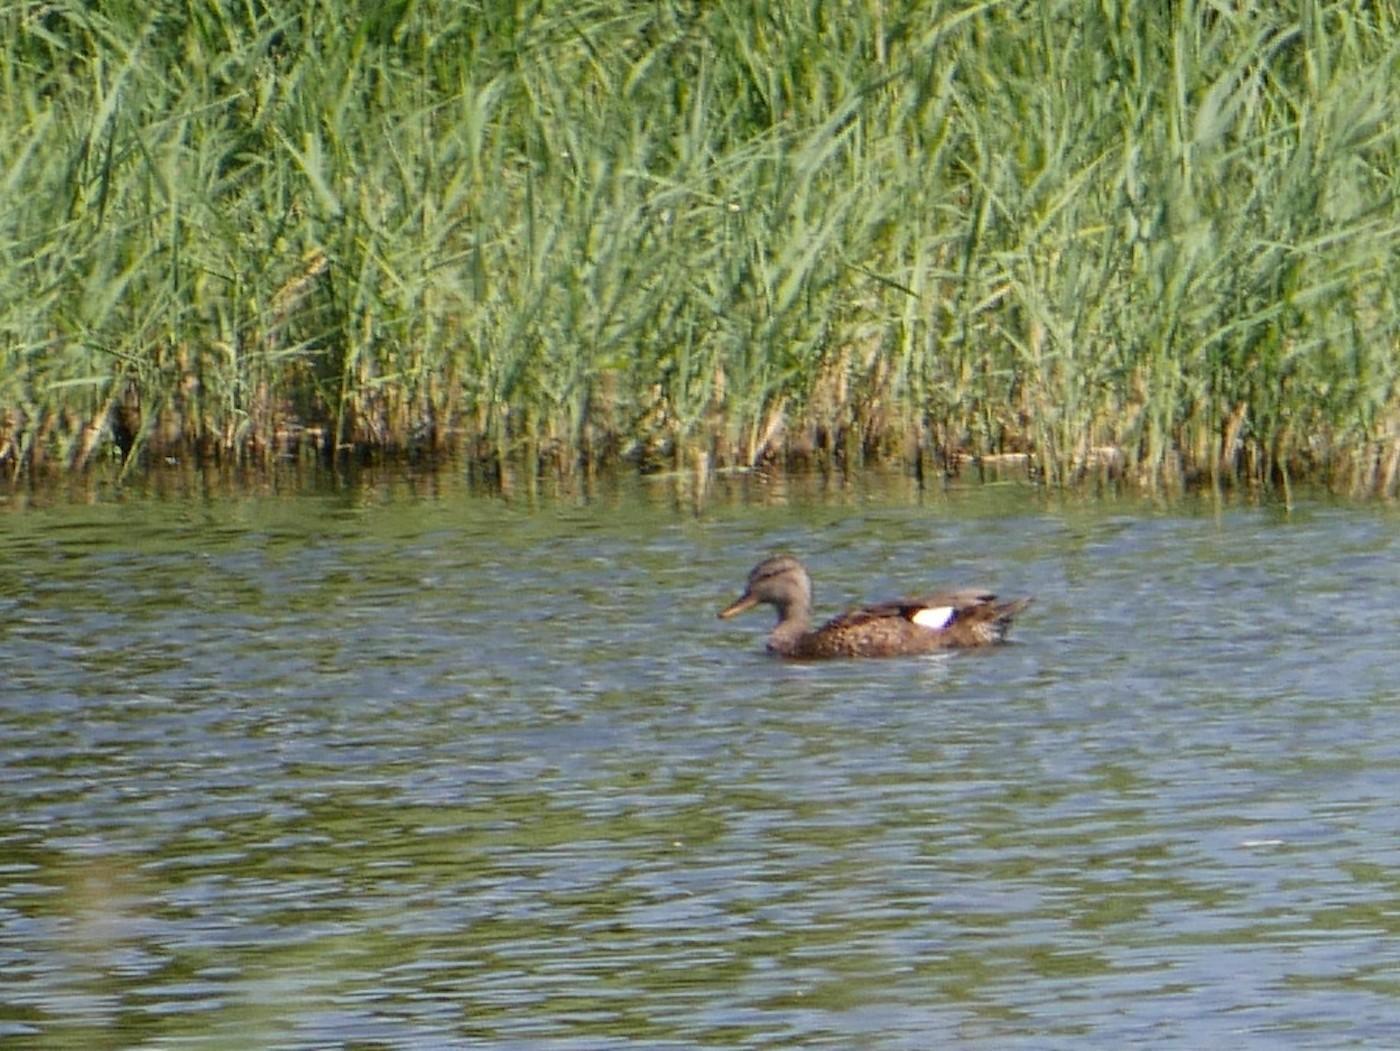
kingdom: Animalia
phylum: Chordata
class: Aves
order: Anseriformes
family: Anatidae
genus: Mareca
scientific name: Mareca strepera
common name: Gadwall
